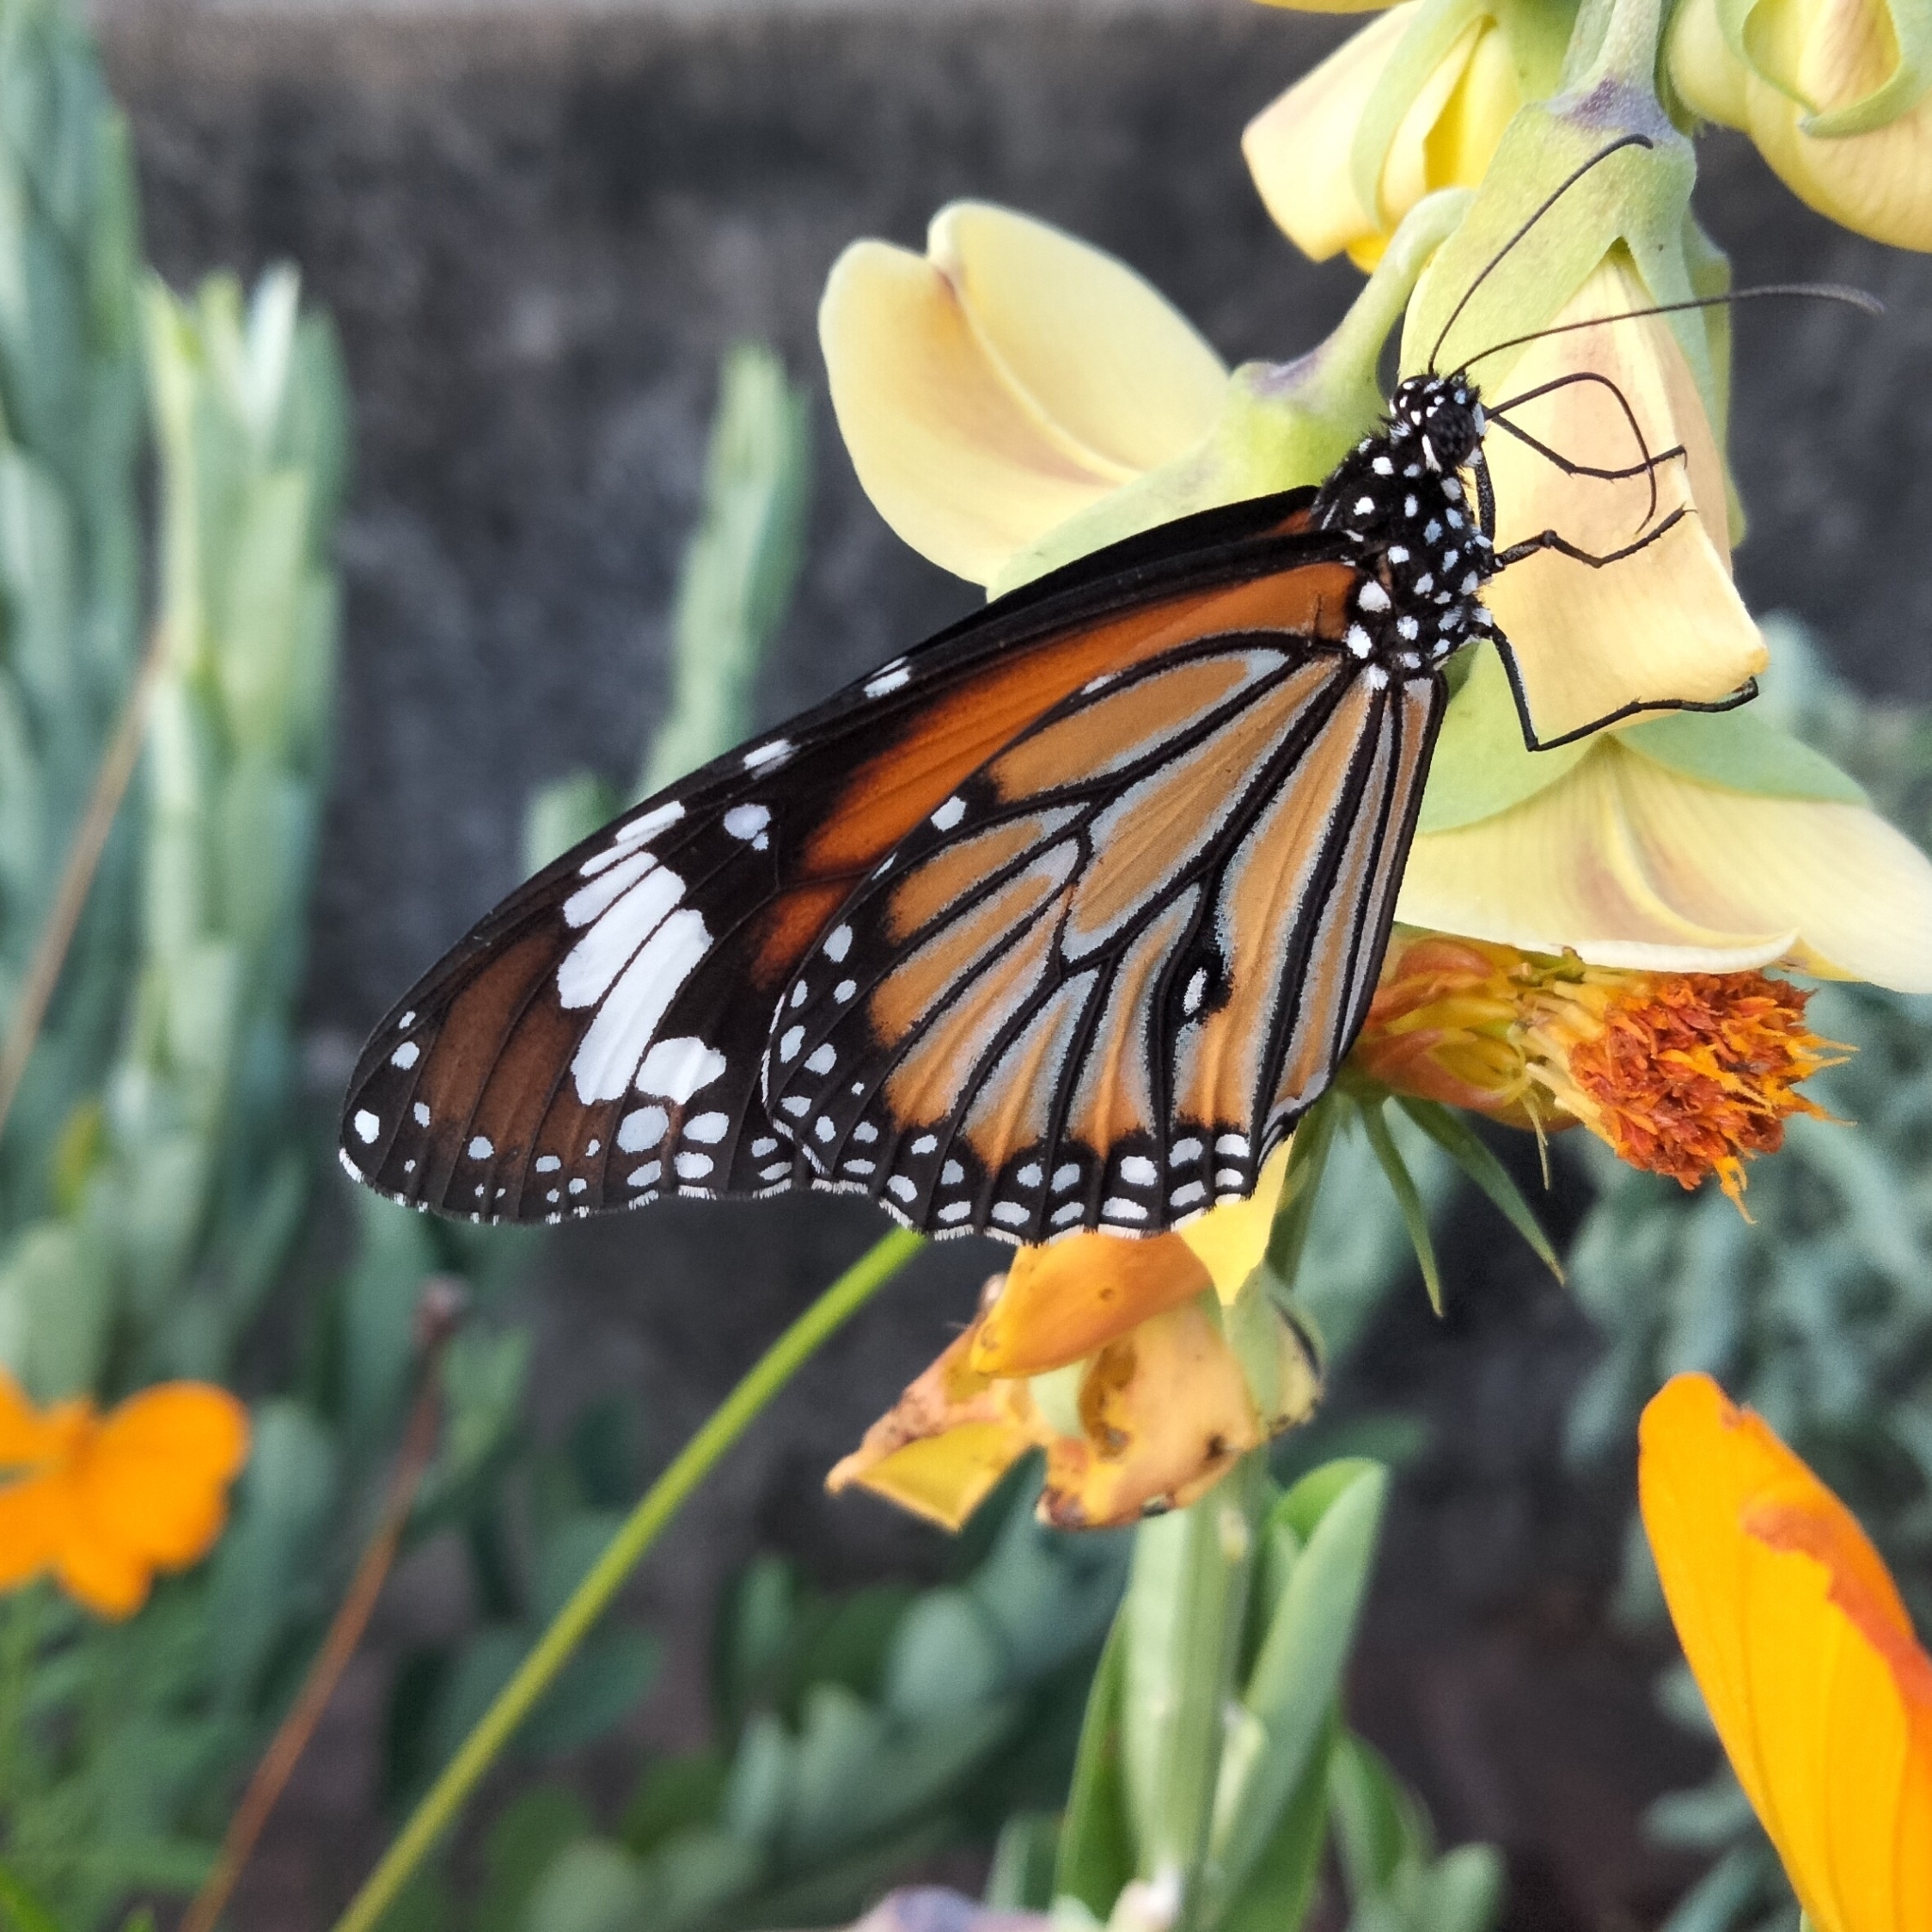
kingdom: Animalia
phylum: Arthropoda
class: Insecta
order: Lepidoptera
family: Nymphalidae
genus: Danaus
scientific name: Danaus genutia
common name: Common tiger butterfly
